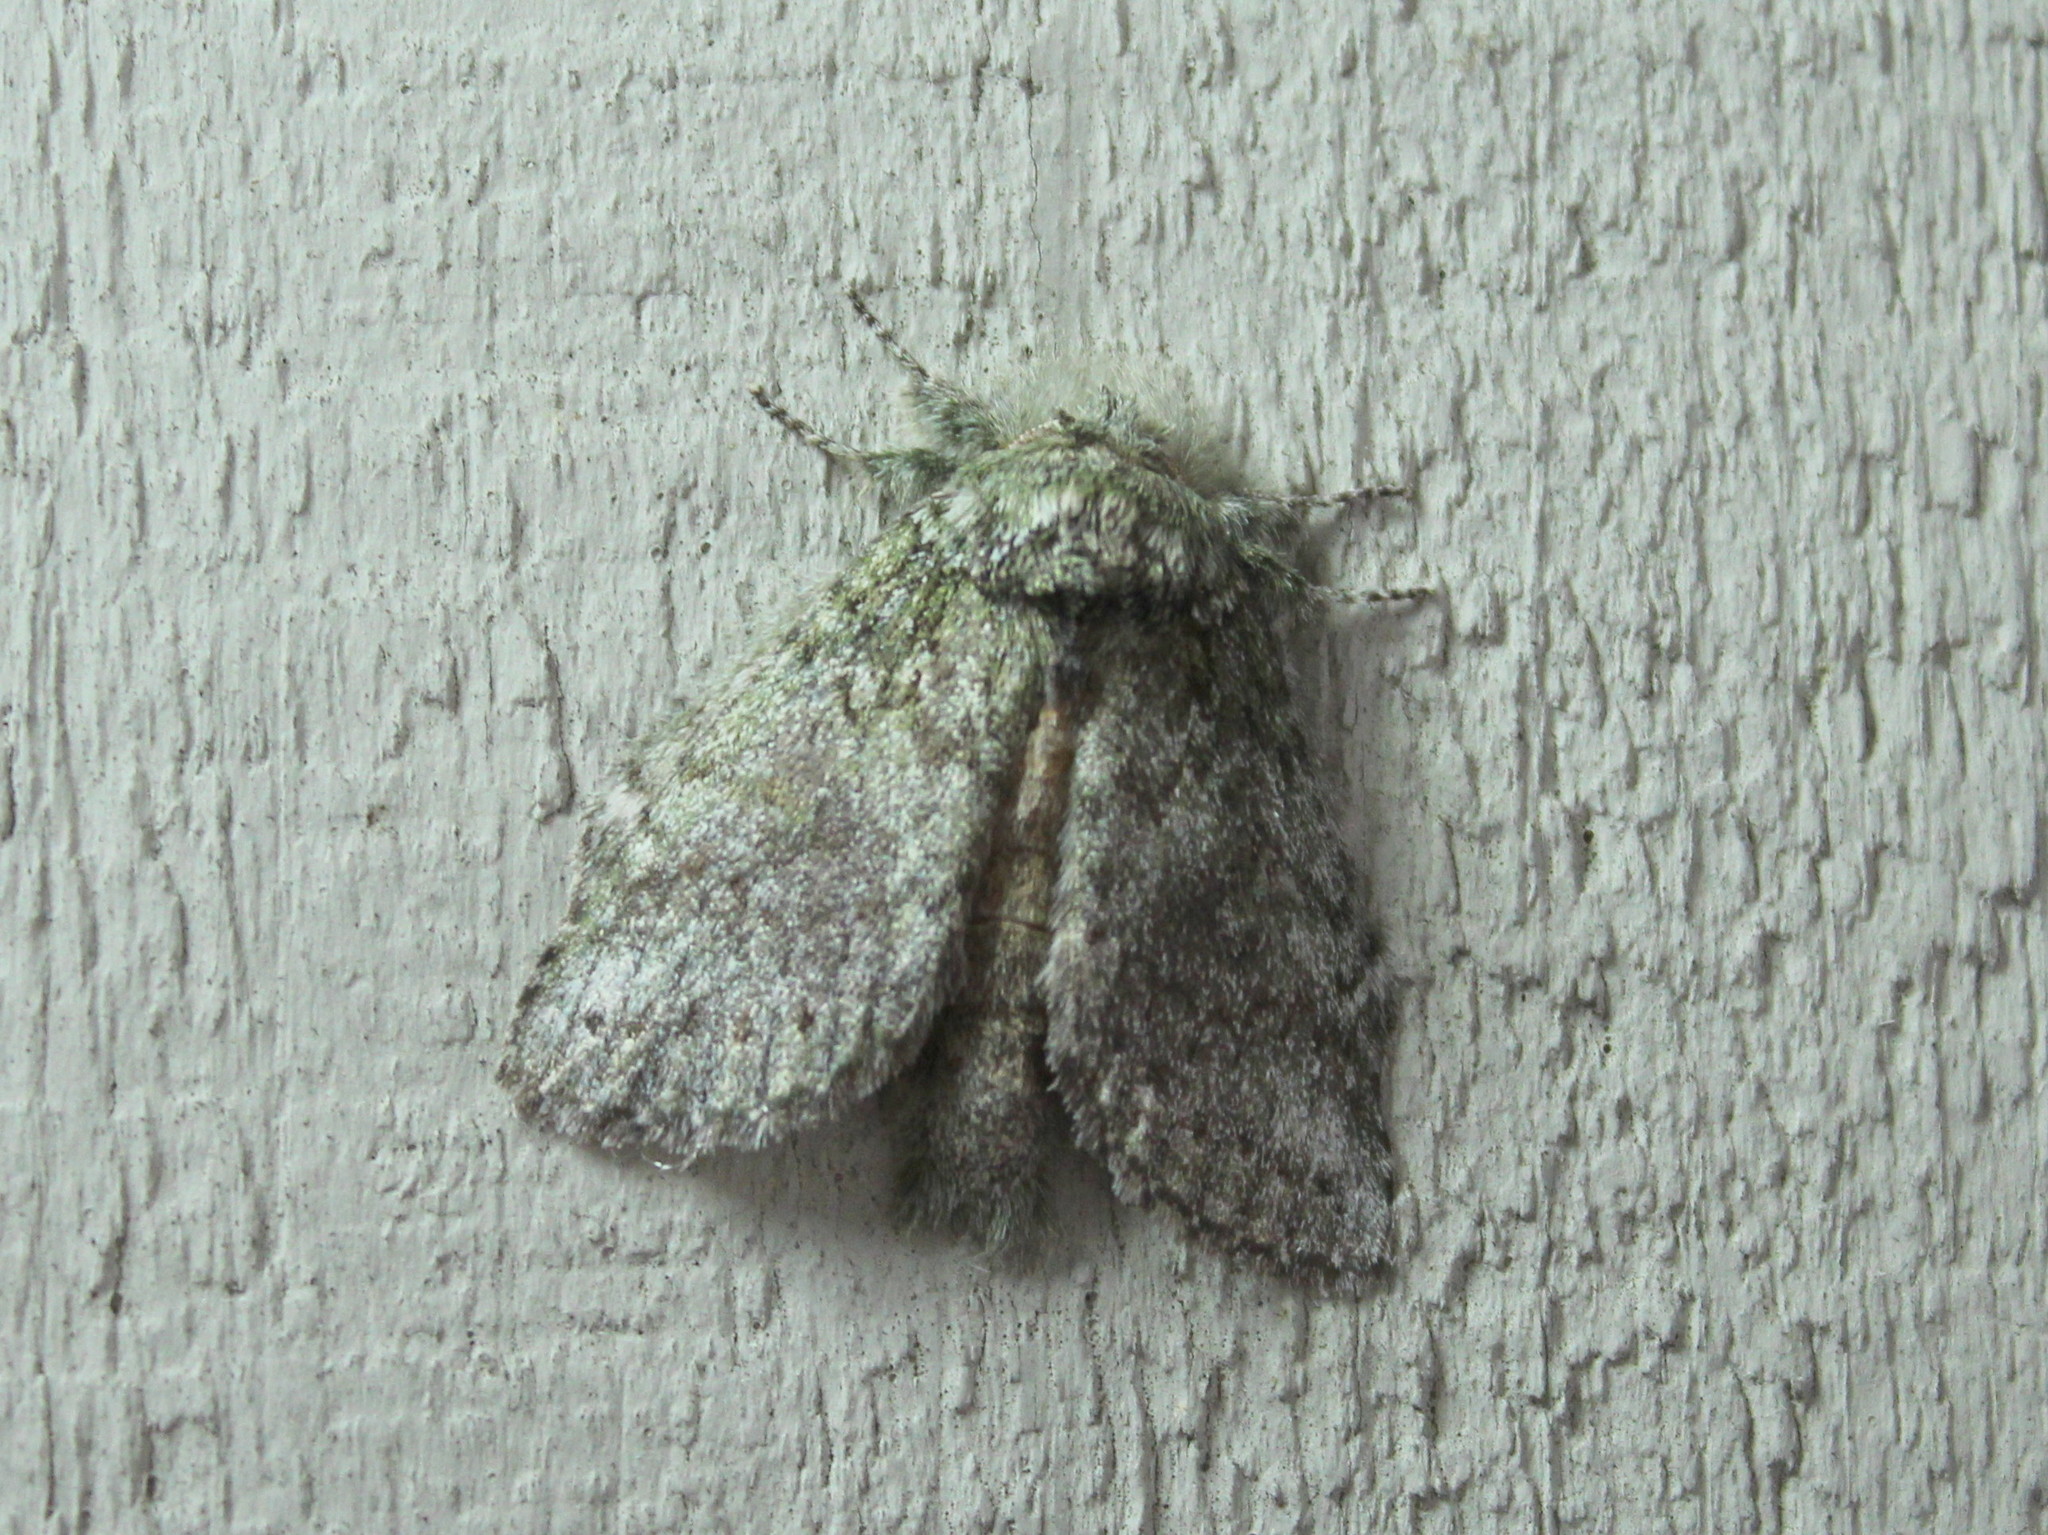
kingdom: Animalia
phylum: Arthropoda
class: Insecta
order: Lepidoptera
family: Notodontidae
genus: Disphragis
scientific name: Disphragis Cecrita guttivitta
